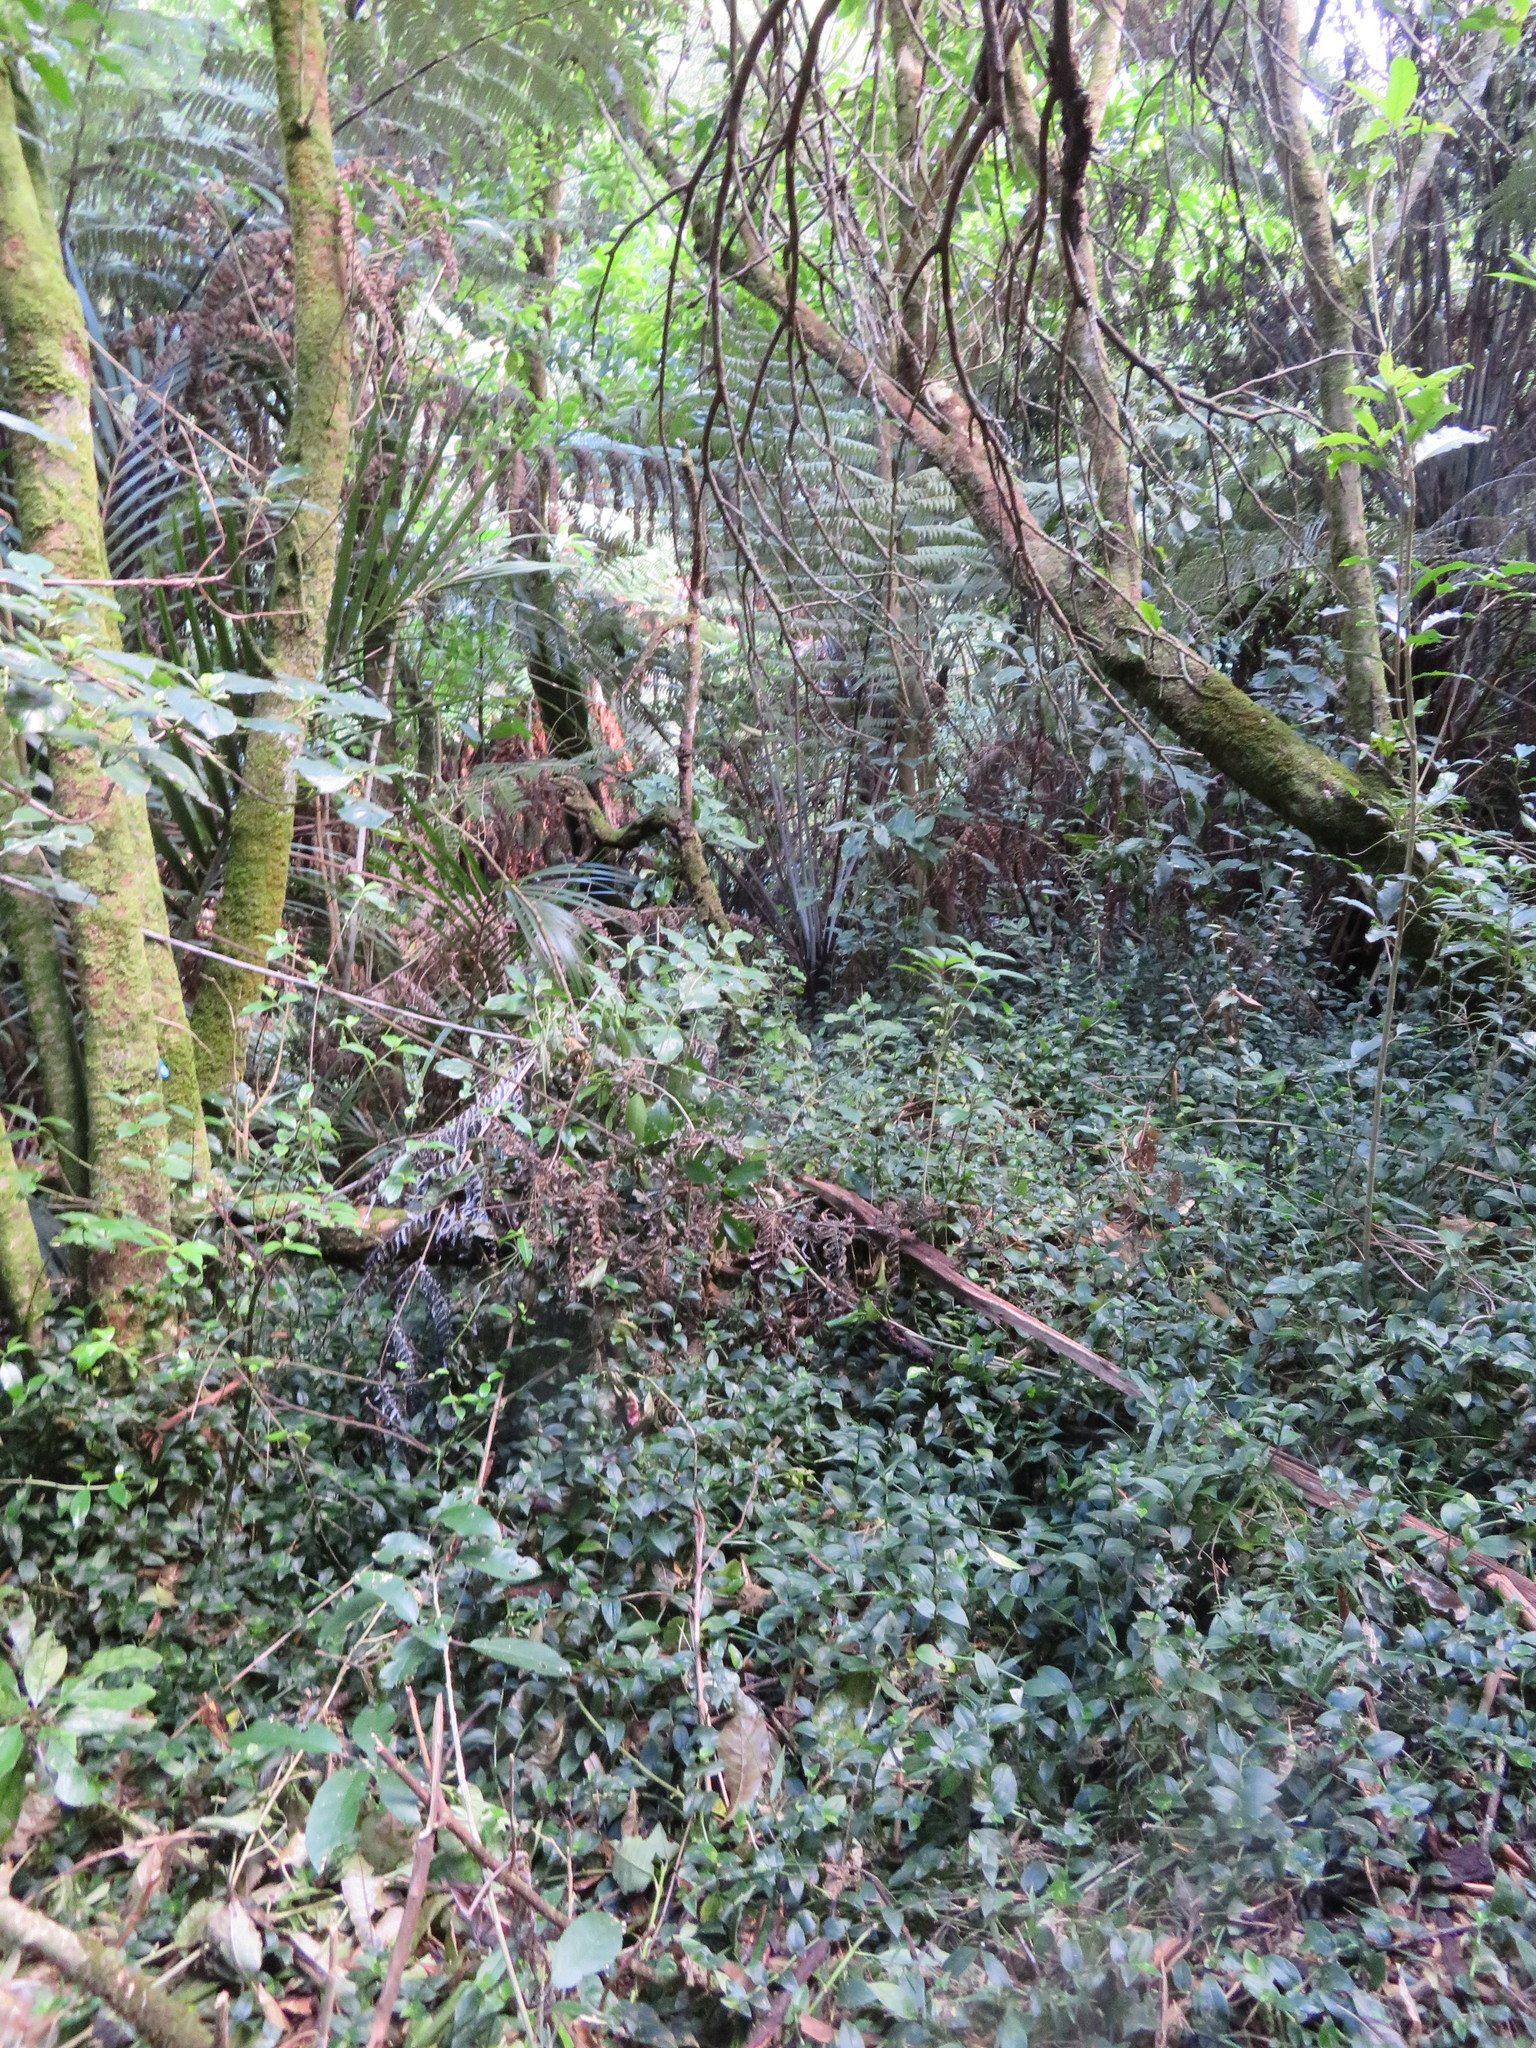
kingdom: Plantae
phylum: Tracheophyta
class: Liliopsida
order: Arecales
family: Arecaceae
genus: Rhopalostylis
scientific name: Rhopalostylis sapida
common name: Feather-duster palm
